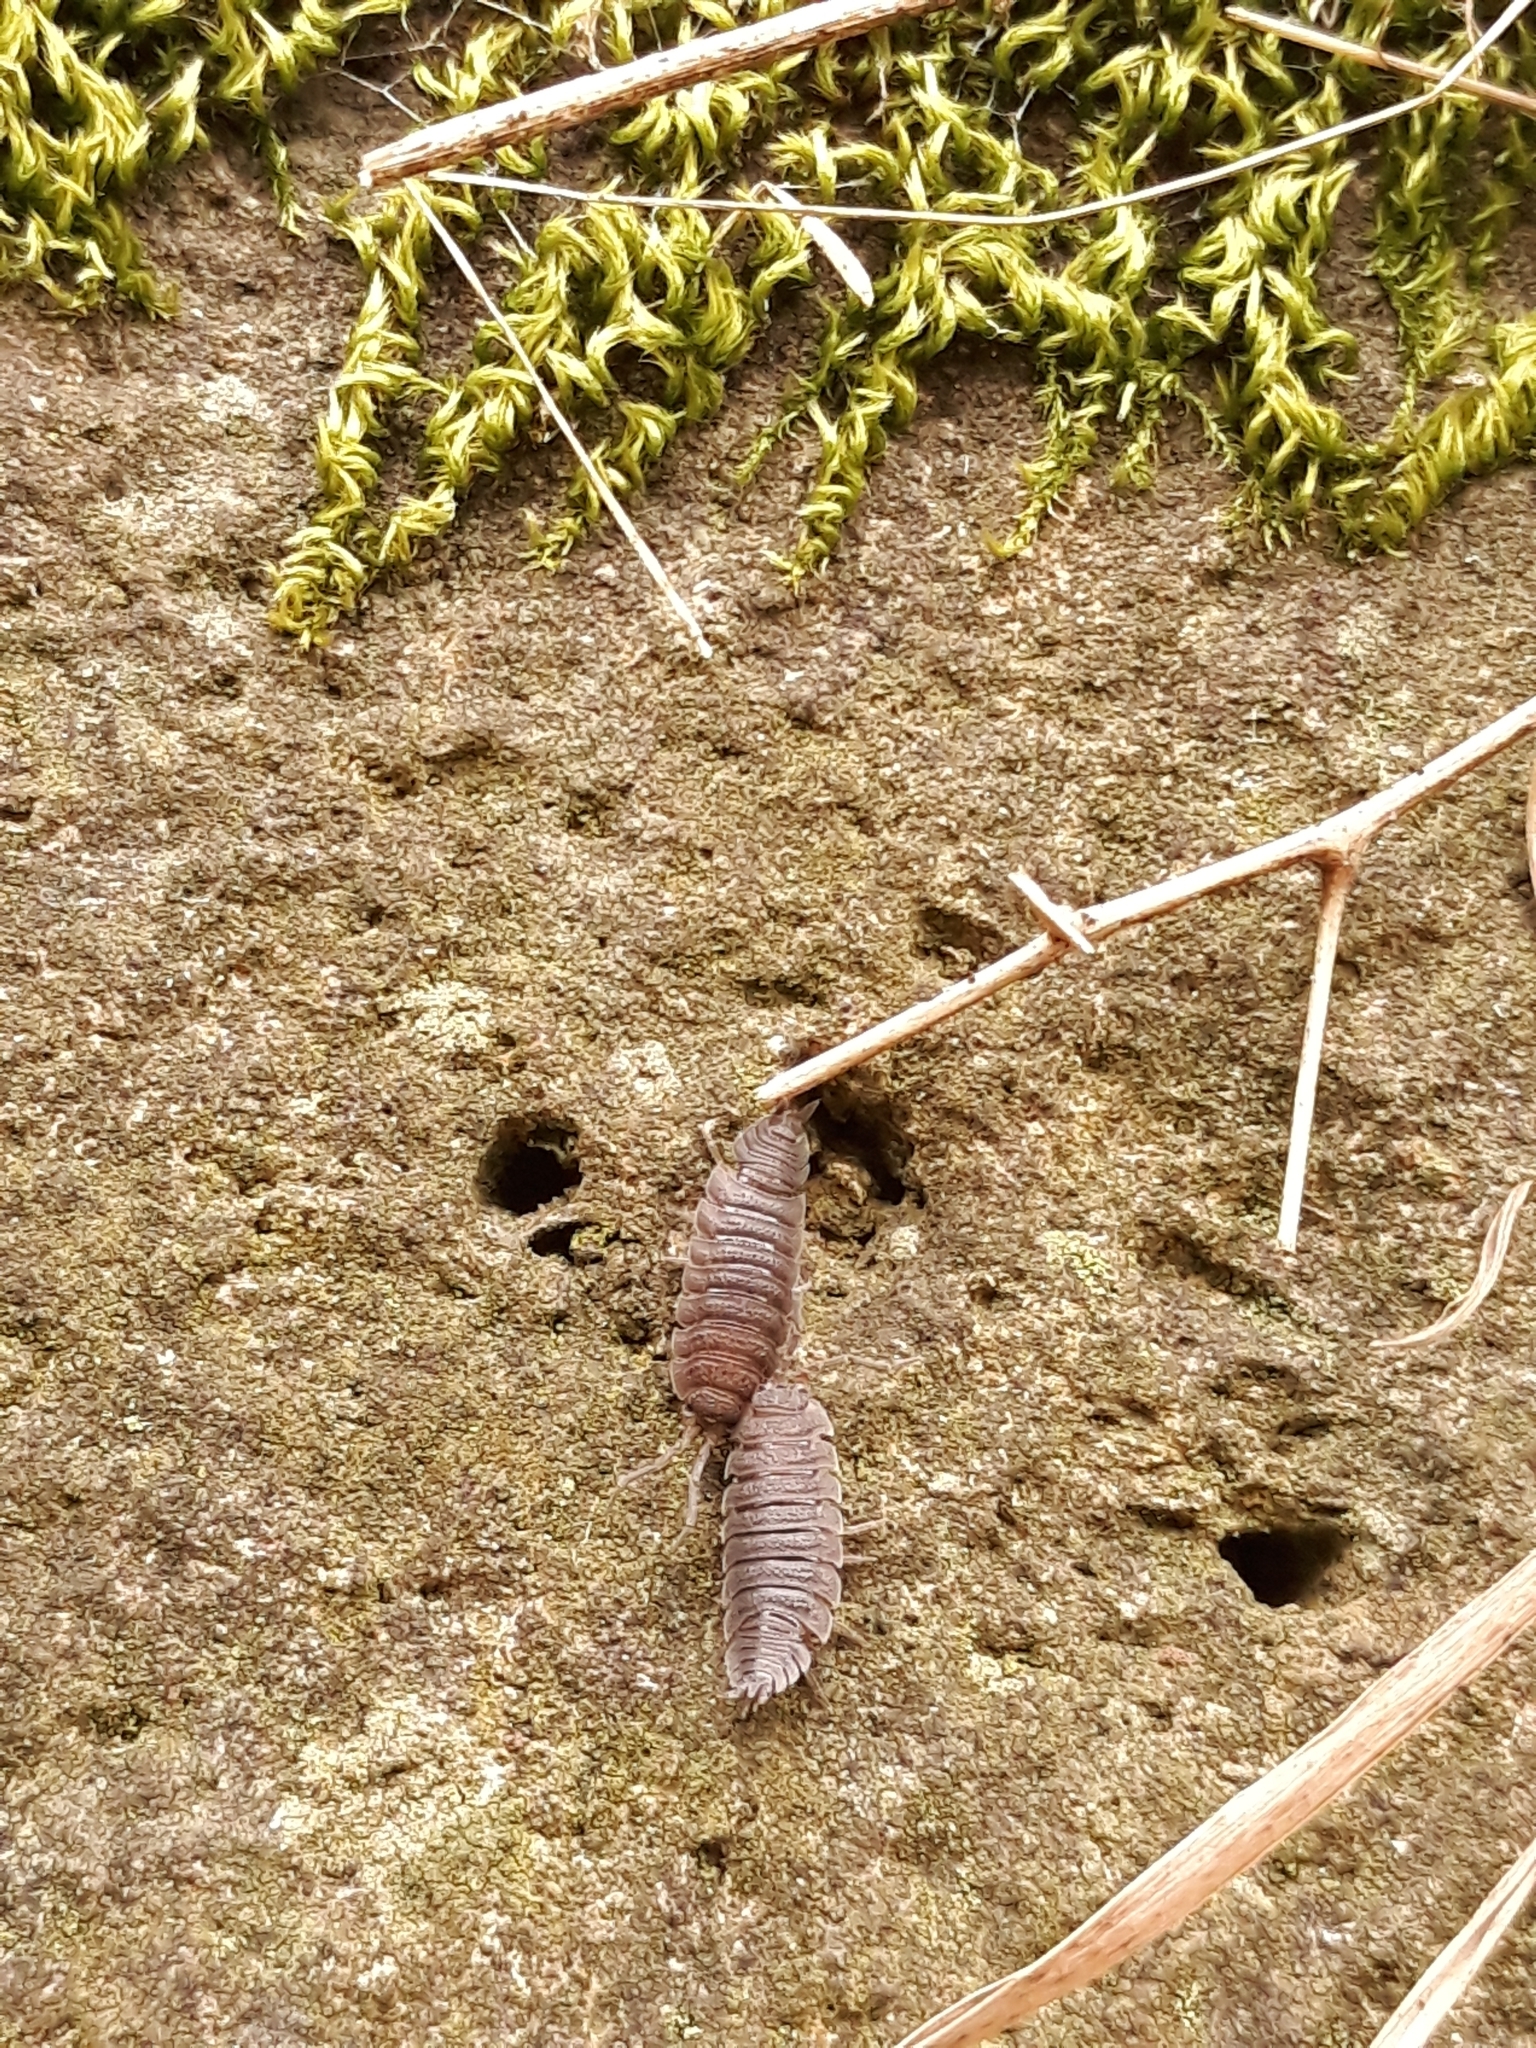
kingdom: Animalia
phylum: Arthropoda
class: Malacostraca
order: Isopoda
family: Porcellionidae
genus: Porcellio
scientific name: Porcellio scaber
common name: Common rough woodlouse
